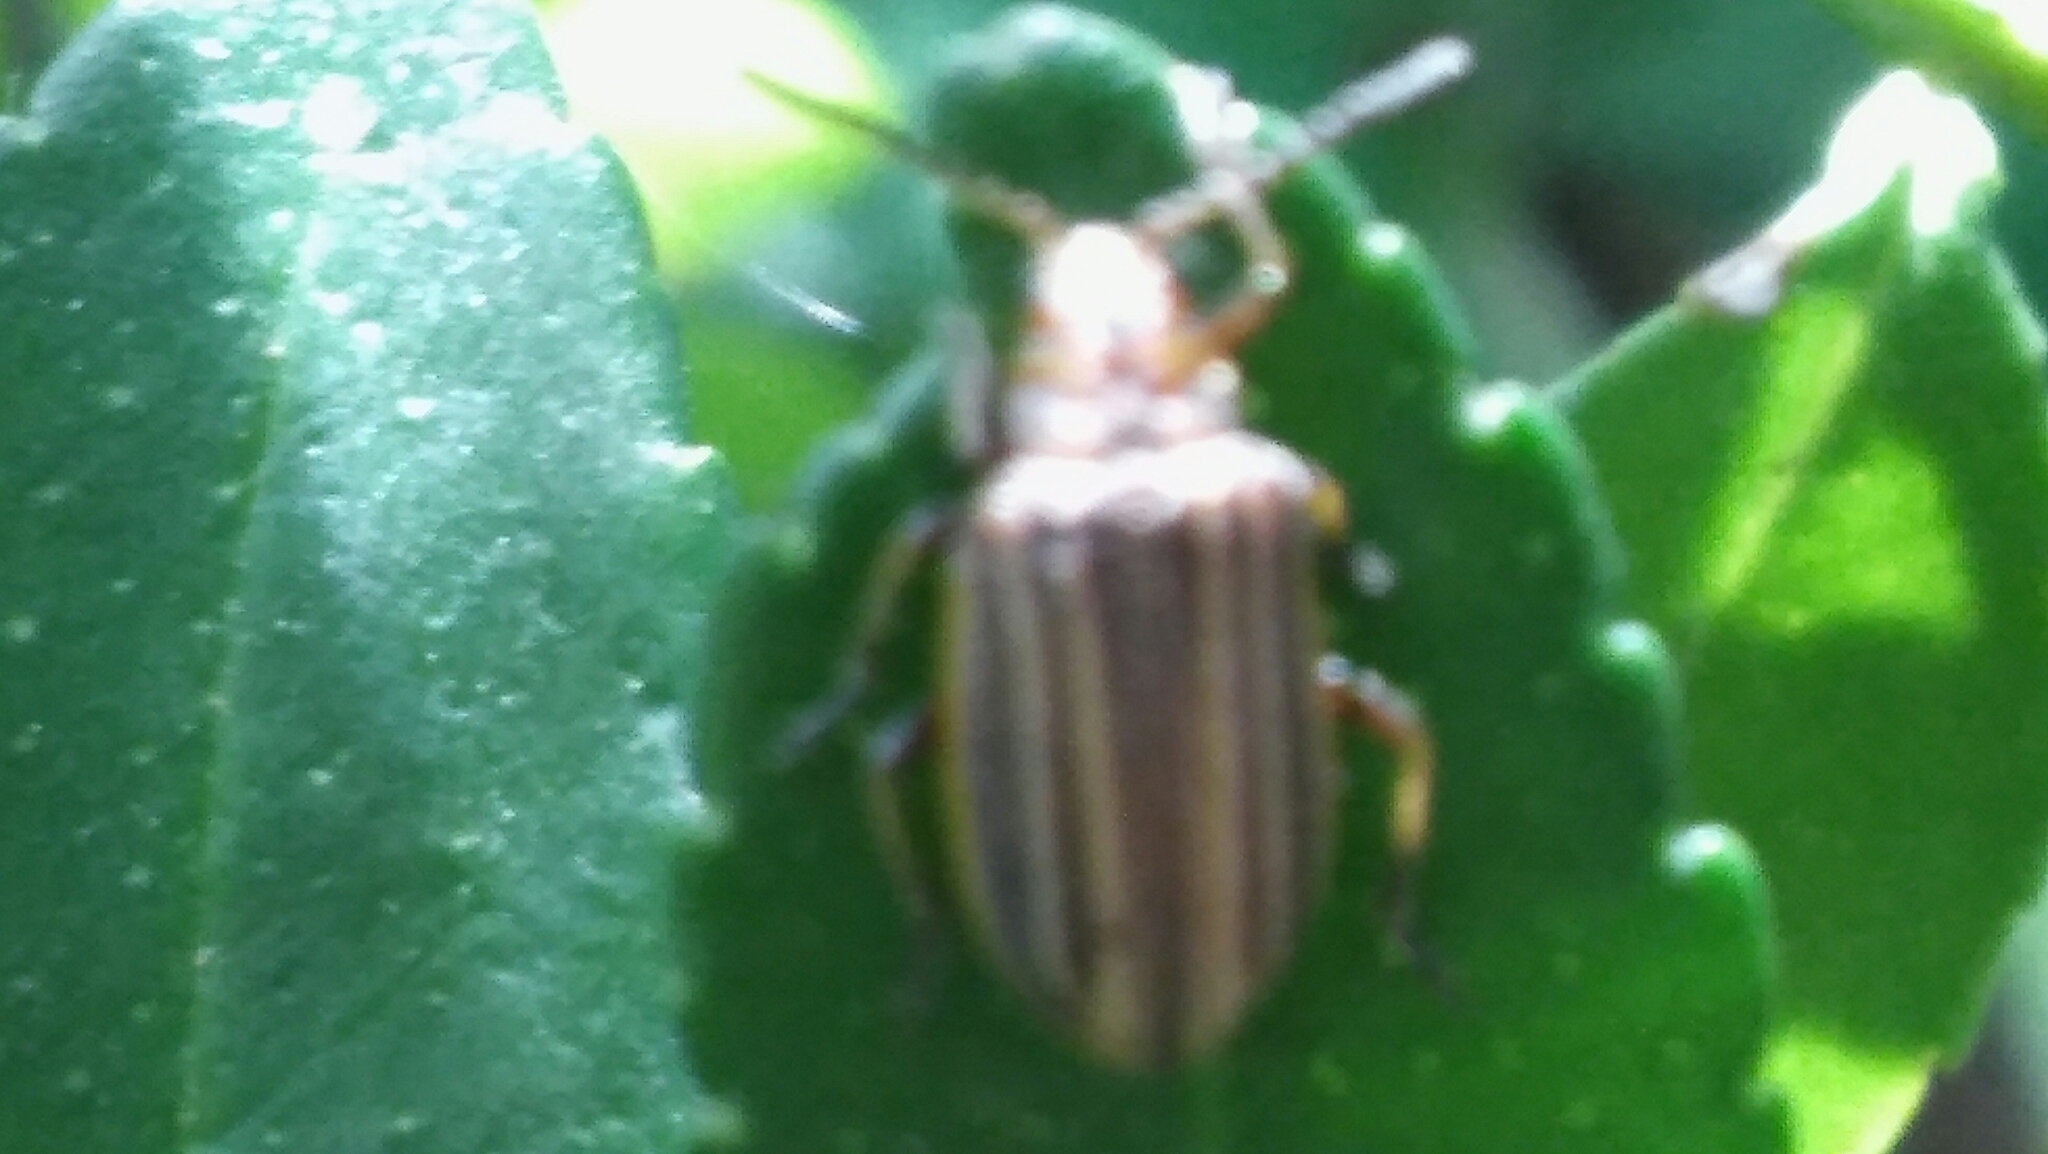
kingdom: Animalia
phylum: Arthropoda
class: Insecta
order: Coleoptera
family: Chrysomelidae
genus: Neolochmaea
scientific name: Neolochmaea
